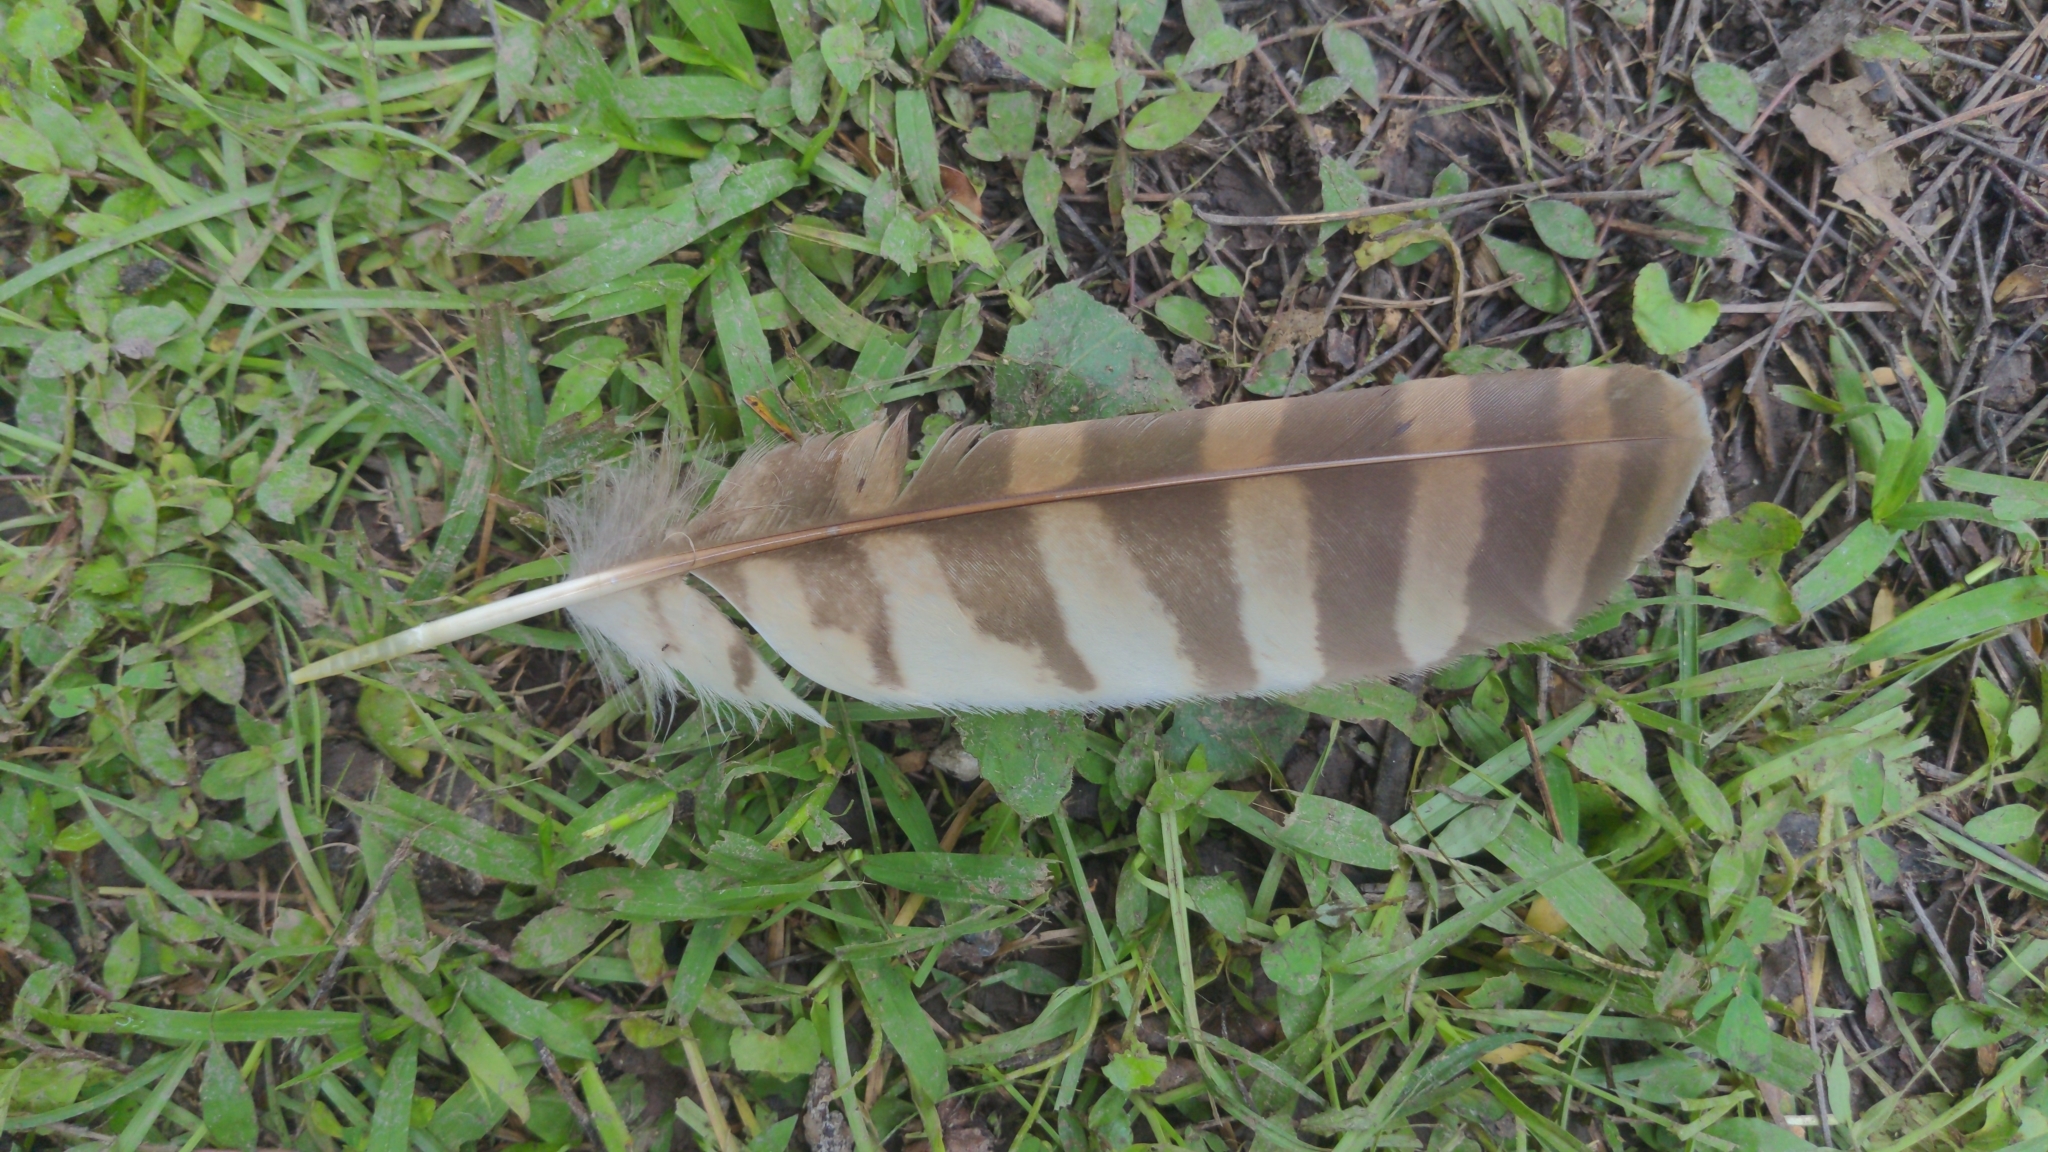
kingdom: Animalia
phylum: Chordata
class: Aves
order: Strigiformes
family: Strigidae
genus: Strix
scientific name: Strix varia
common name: Barred owl
